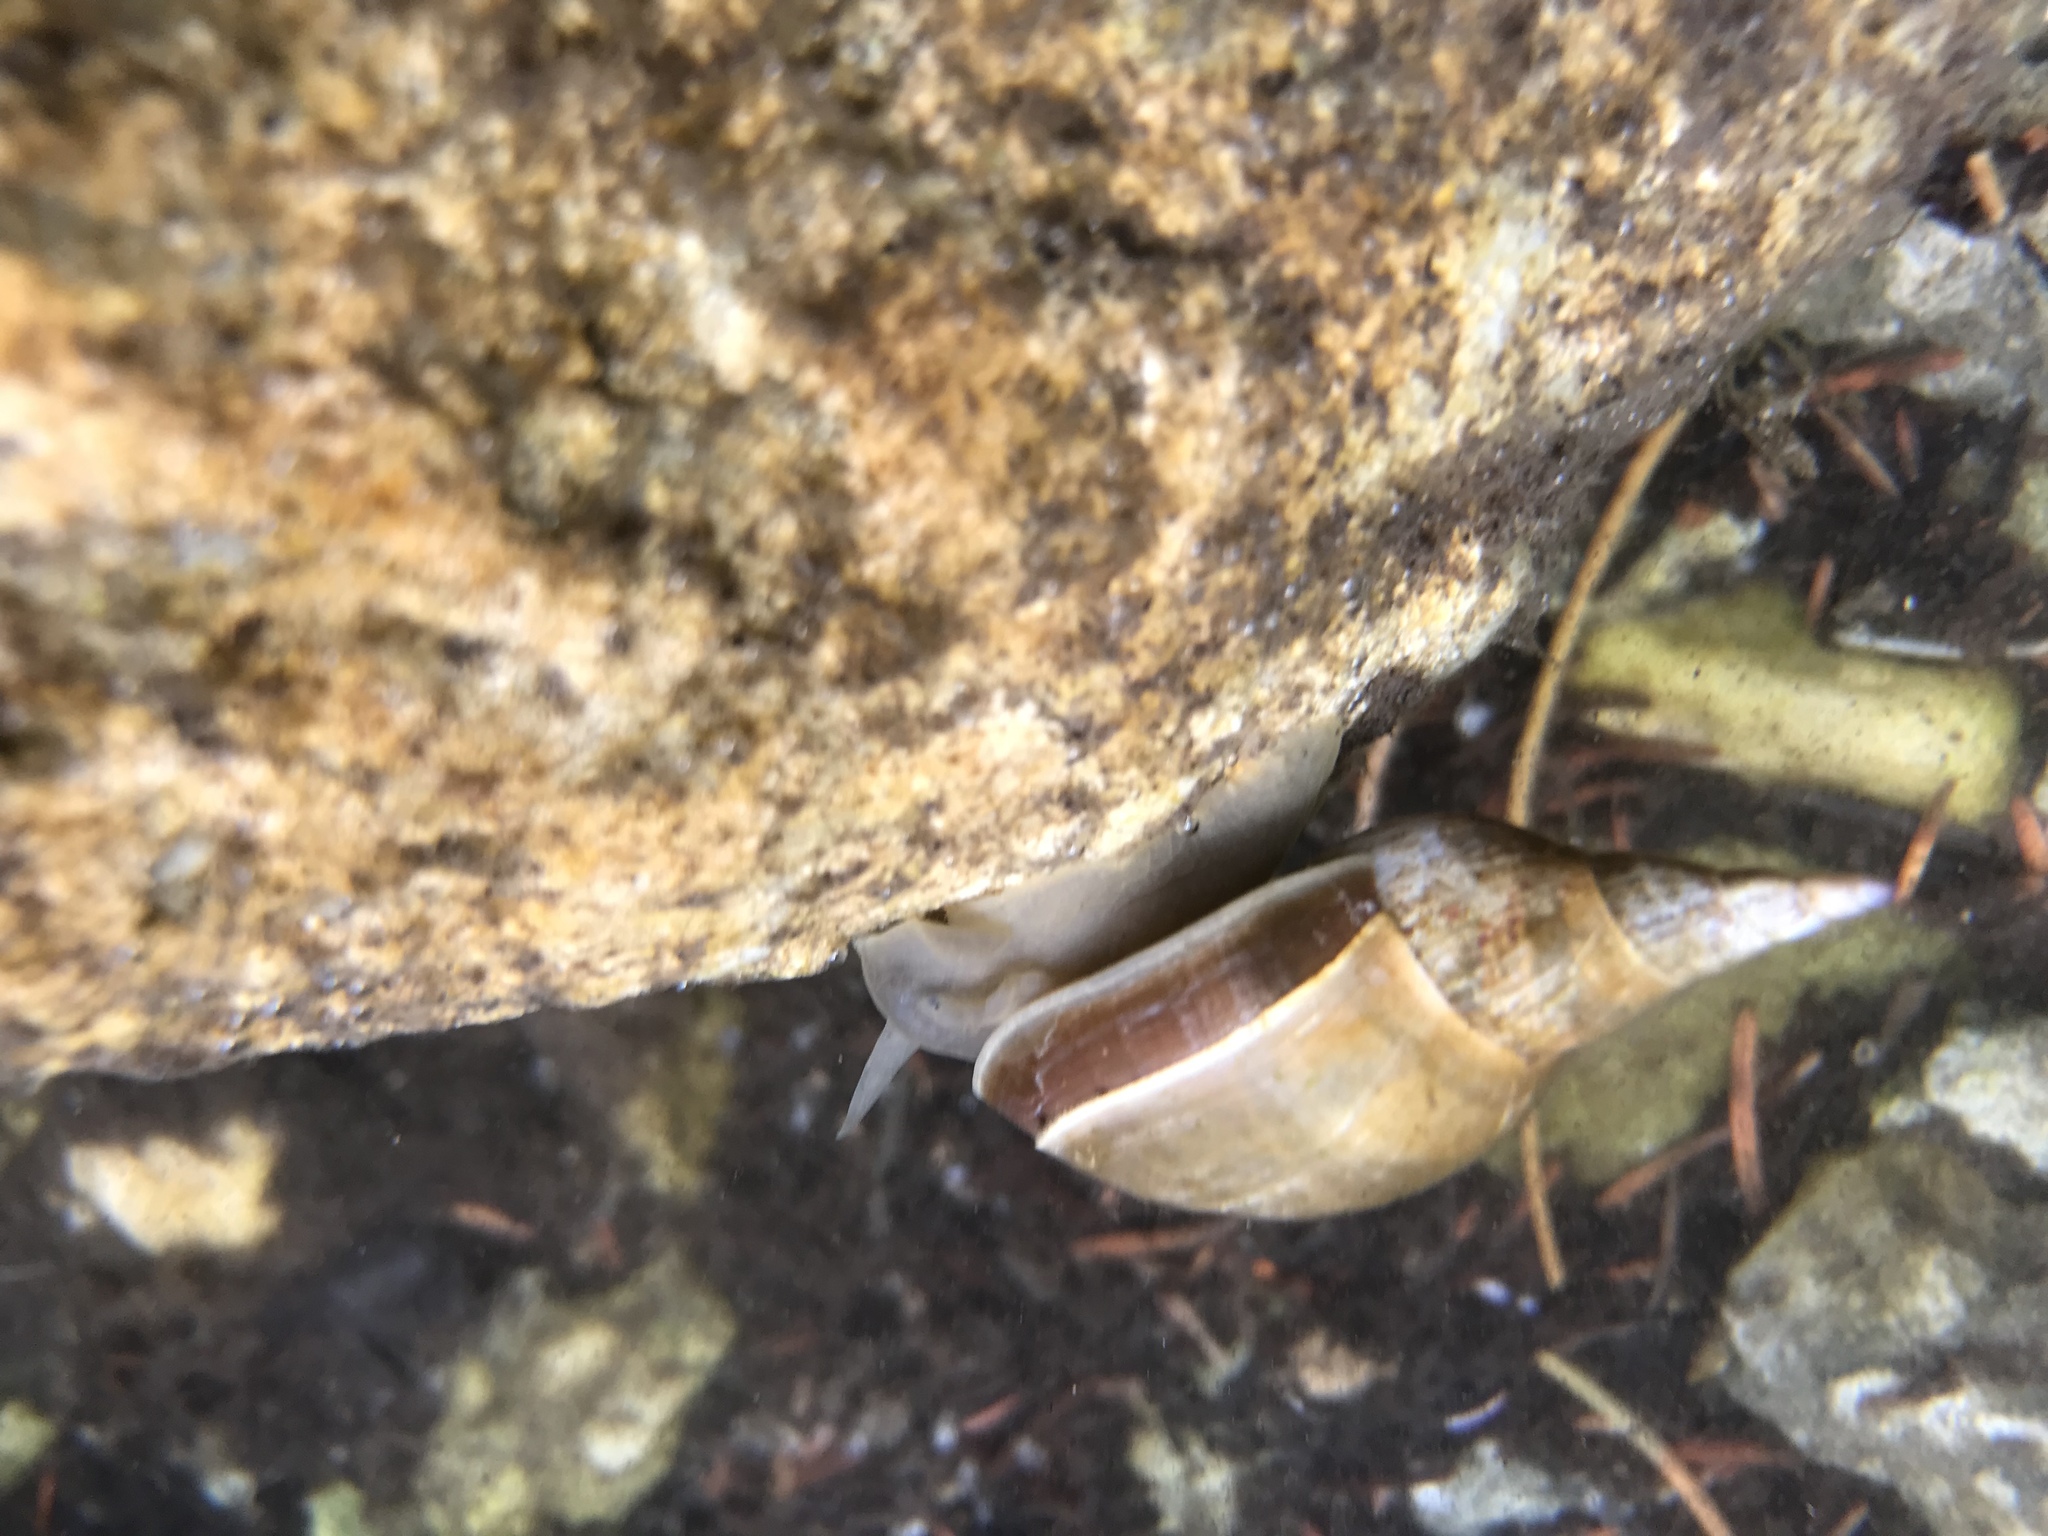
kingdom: Animalia
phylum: Mollusca
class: Gastropoda
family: Lymnaeidae
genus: Lymnaea
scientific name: Lymnaea stagnalis
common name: Great pond snail
